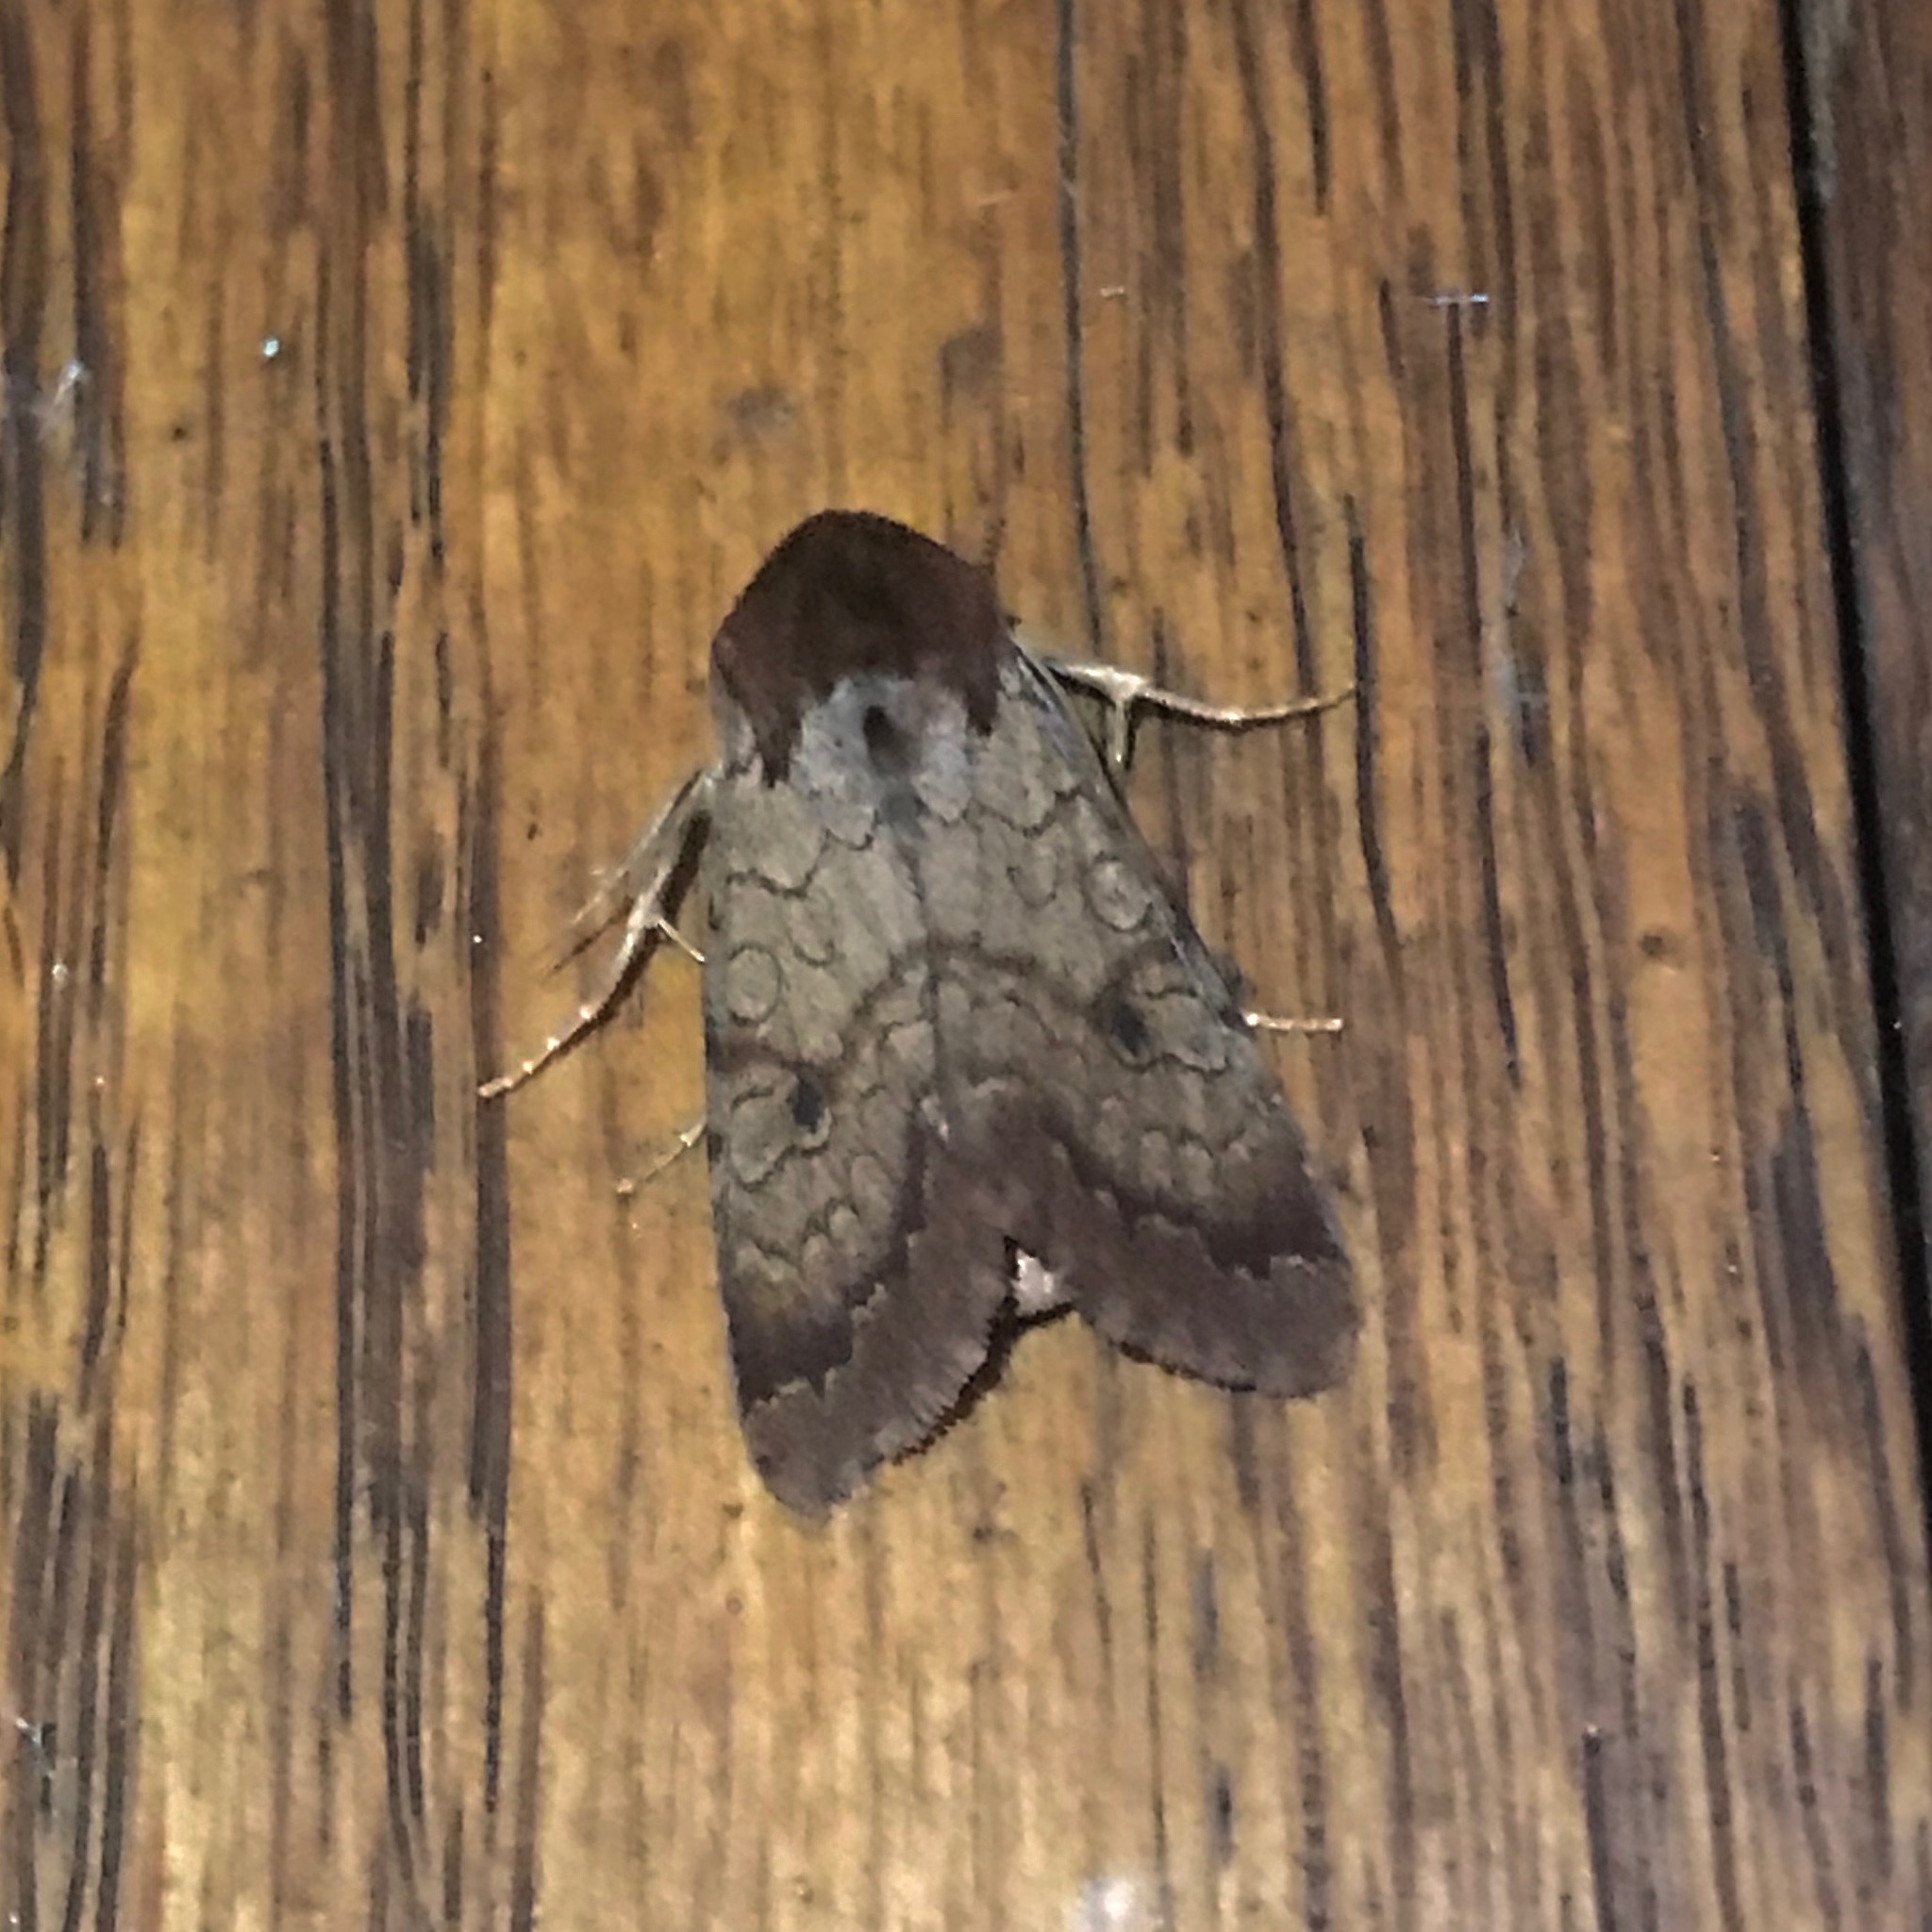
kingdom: Animalia
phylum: Arthropoda
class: Insecta
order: Lepidoptera
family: Noctuidae
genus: Sideridis
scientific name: Sideridis rosea
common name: Rosewing moth
